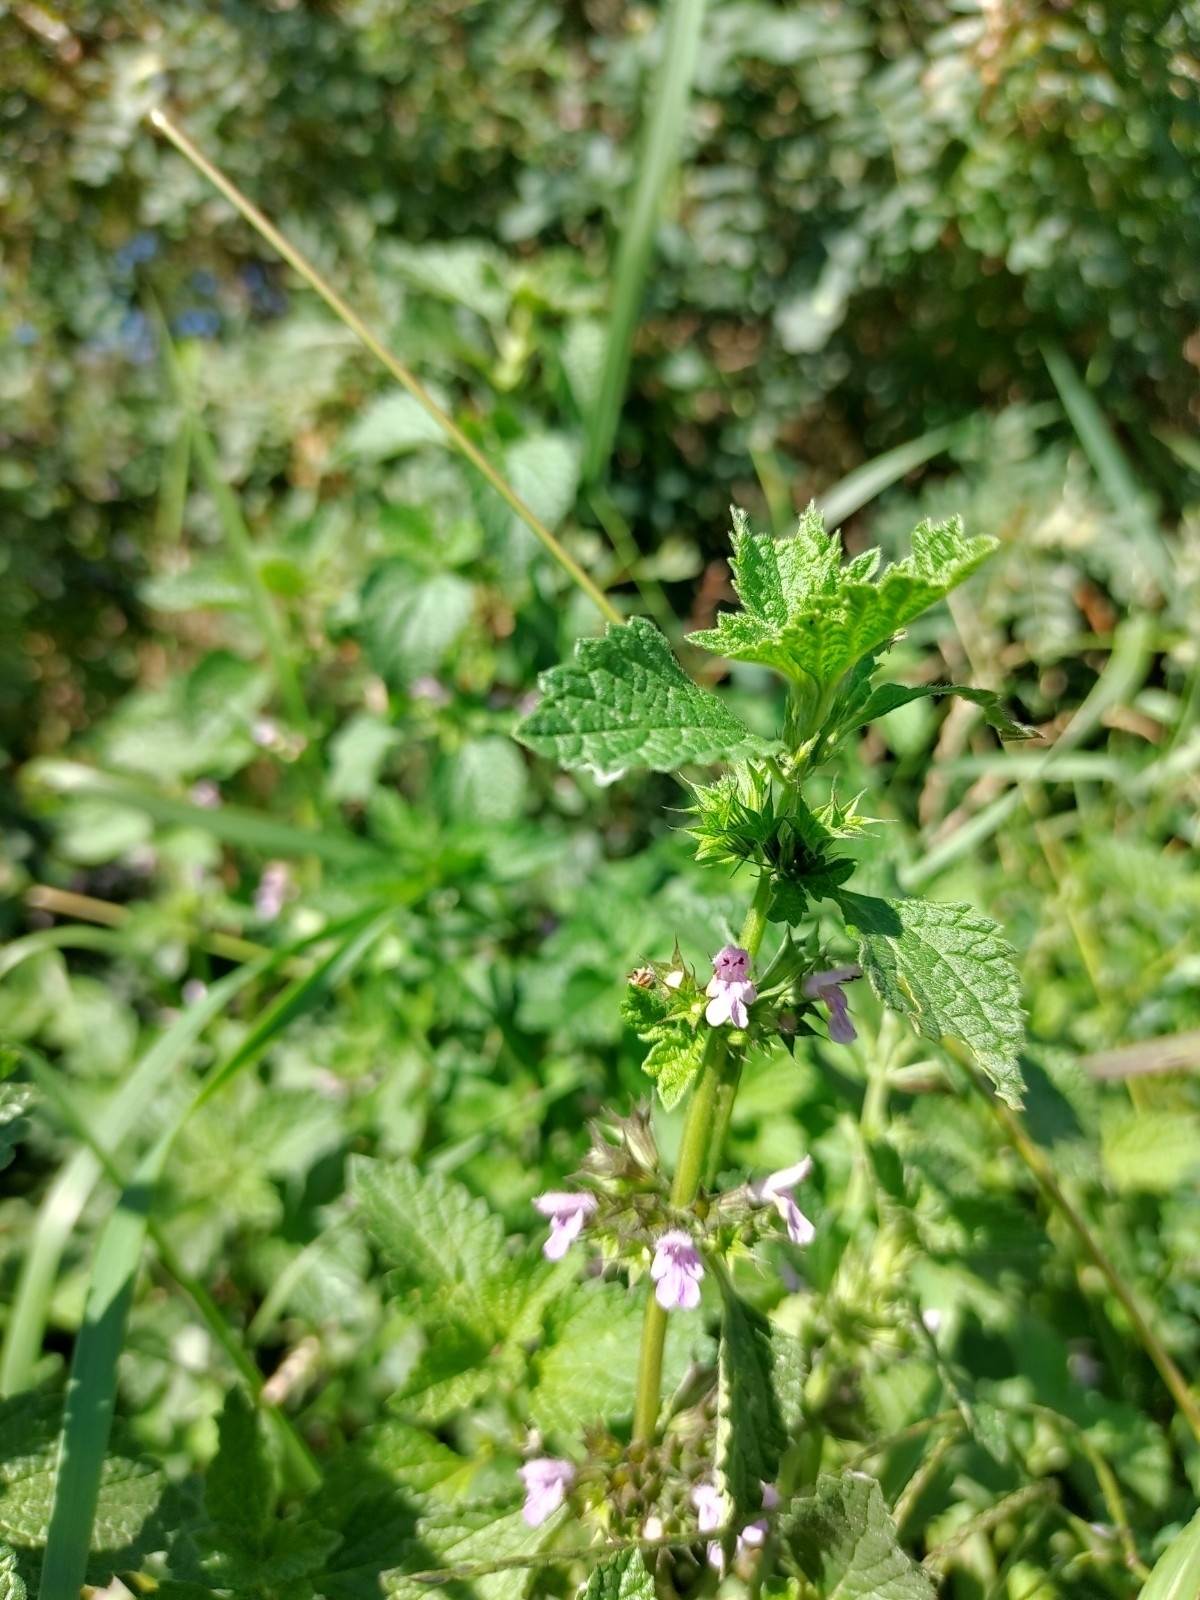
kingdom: Plantae
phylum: Tracheophyta
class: Magnoliopsida
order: Lamiales
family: Lamiaceae
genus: Ballota
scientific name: Ballota nigra
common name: Black horehound
